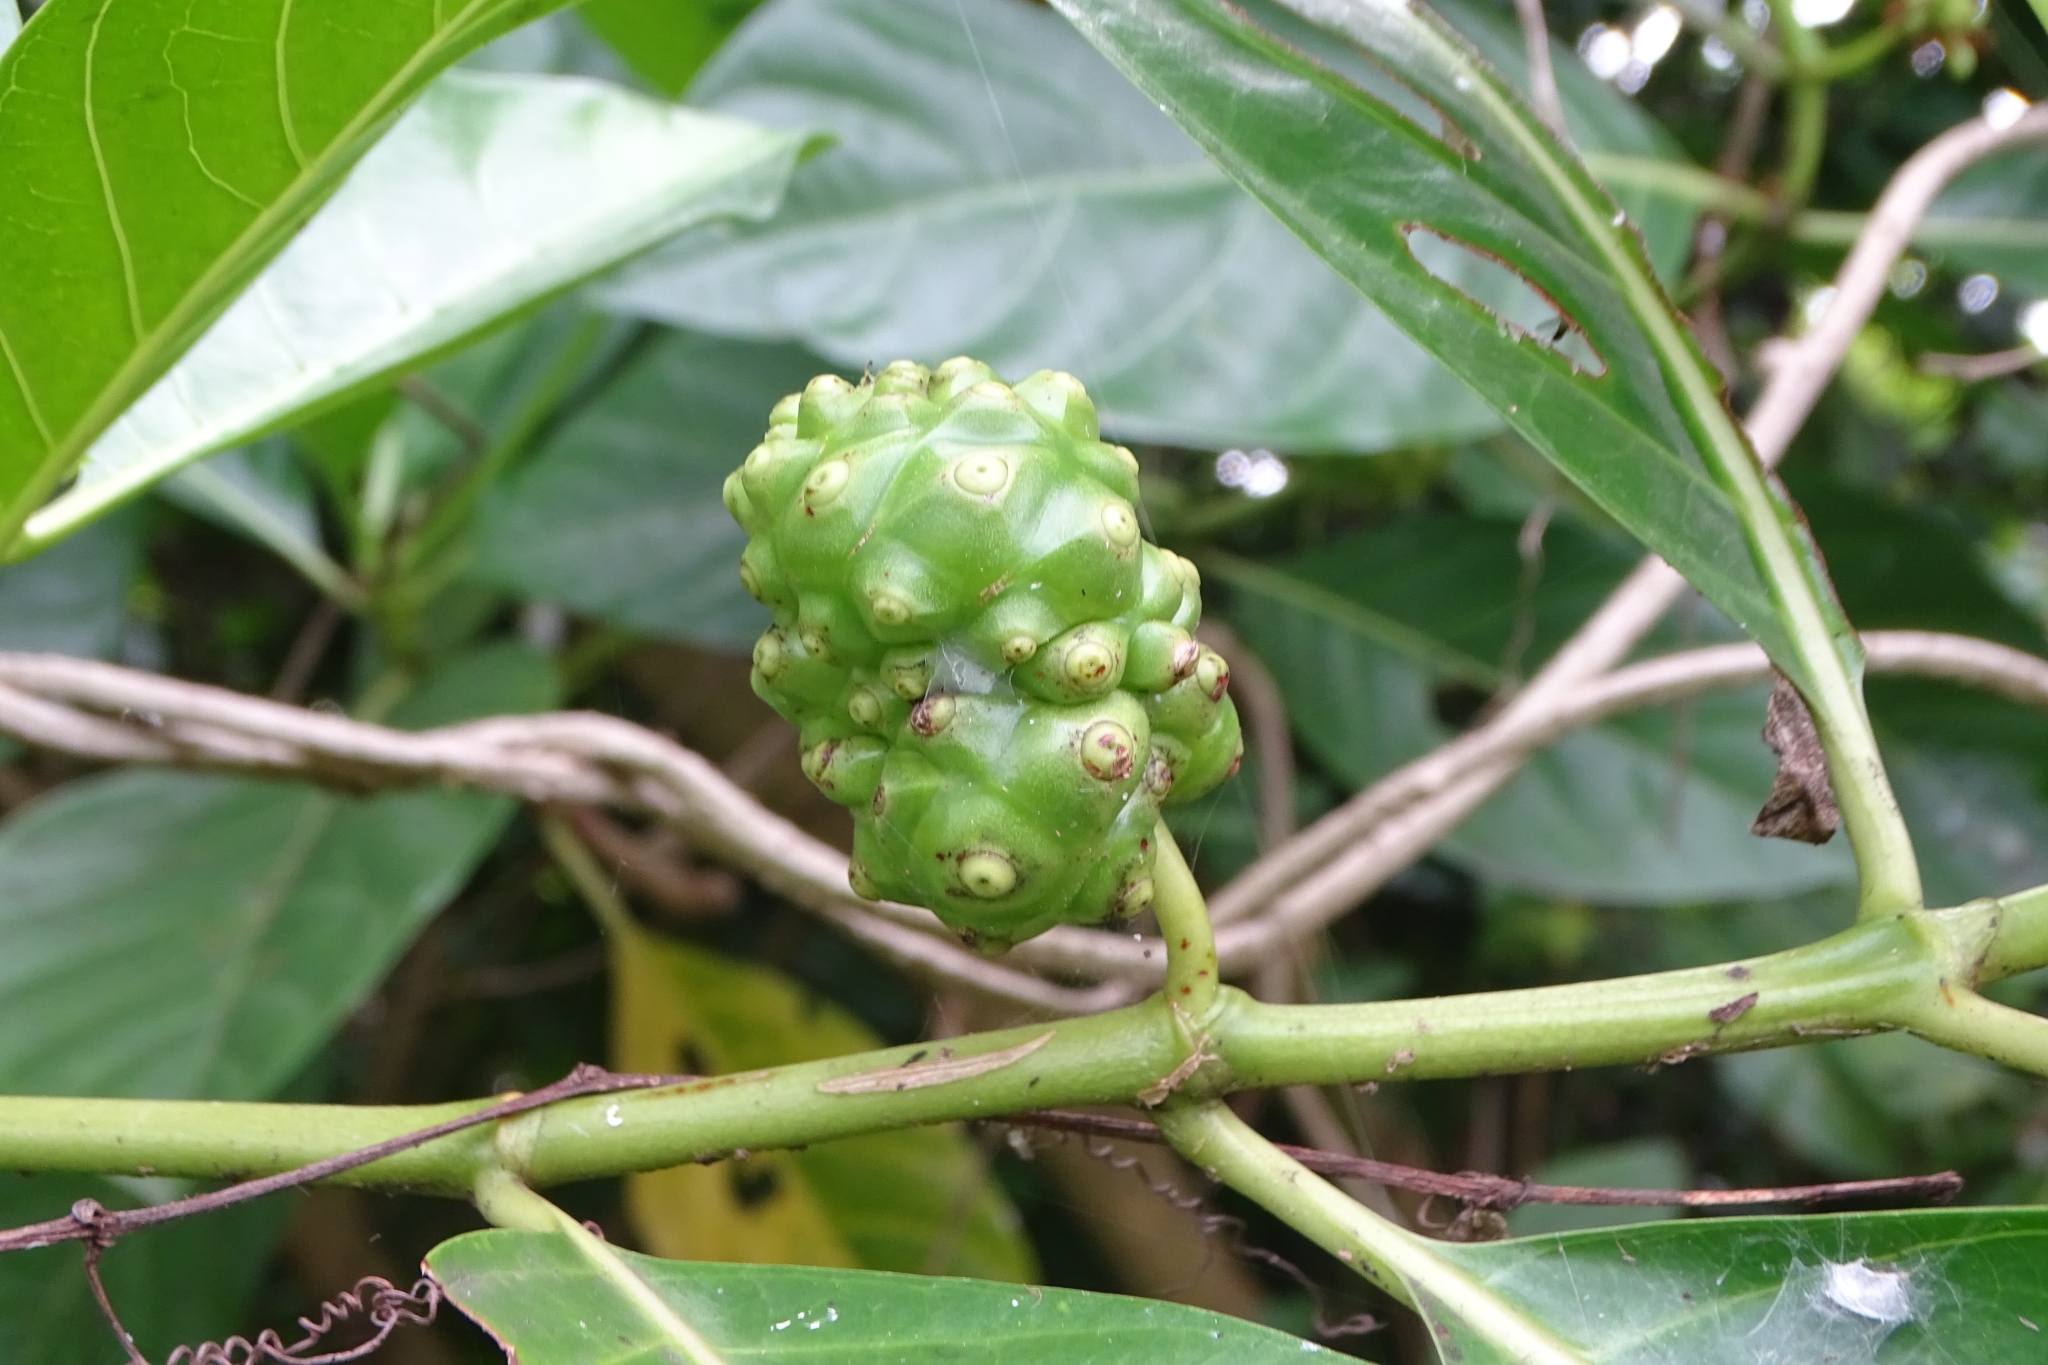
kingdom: Plantae
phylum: Tracheophyta
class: Magnoliopsida
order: Gentianales
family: Rubiaceae
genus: Morinda
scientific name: Morinda citrifolia
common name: Indian-mulberry
